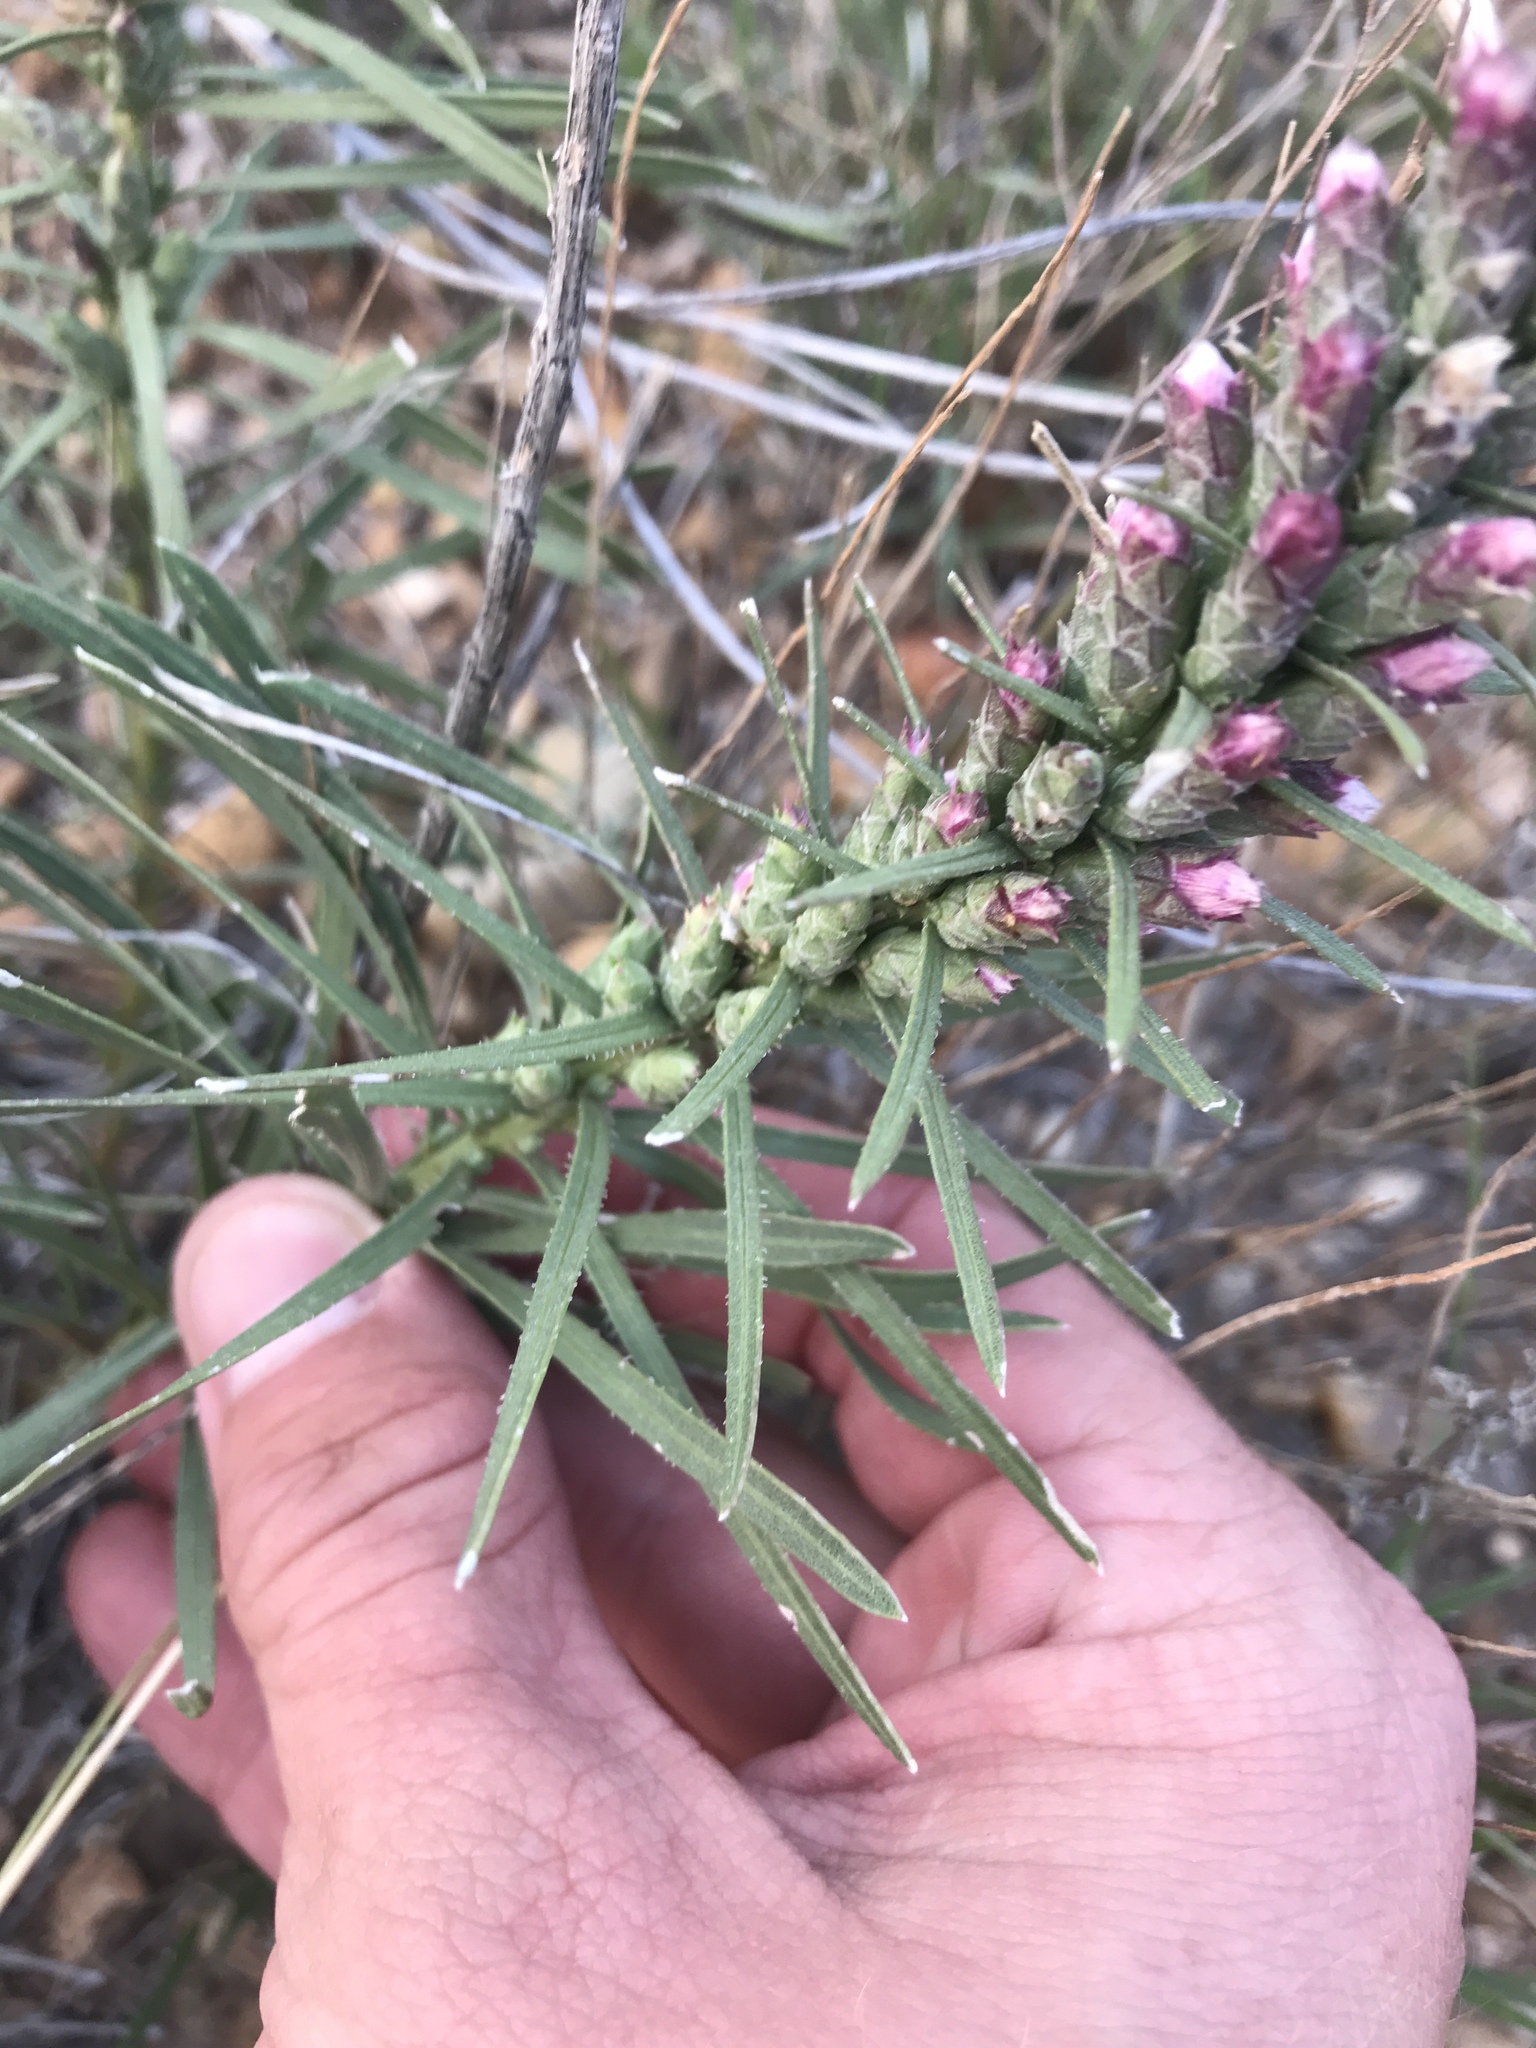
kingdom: Plantae
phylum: Tracheophyta
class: Magnoliopsida
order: Asterales
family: Asteraceae
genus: Liatris
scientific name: Liatris punctata
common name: Dotted gayfeather
